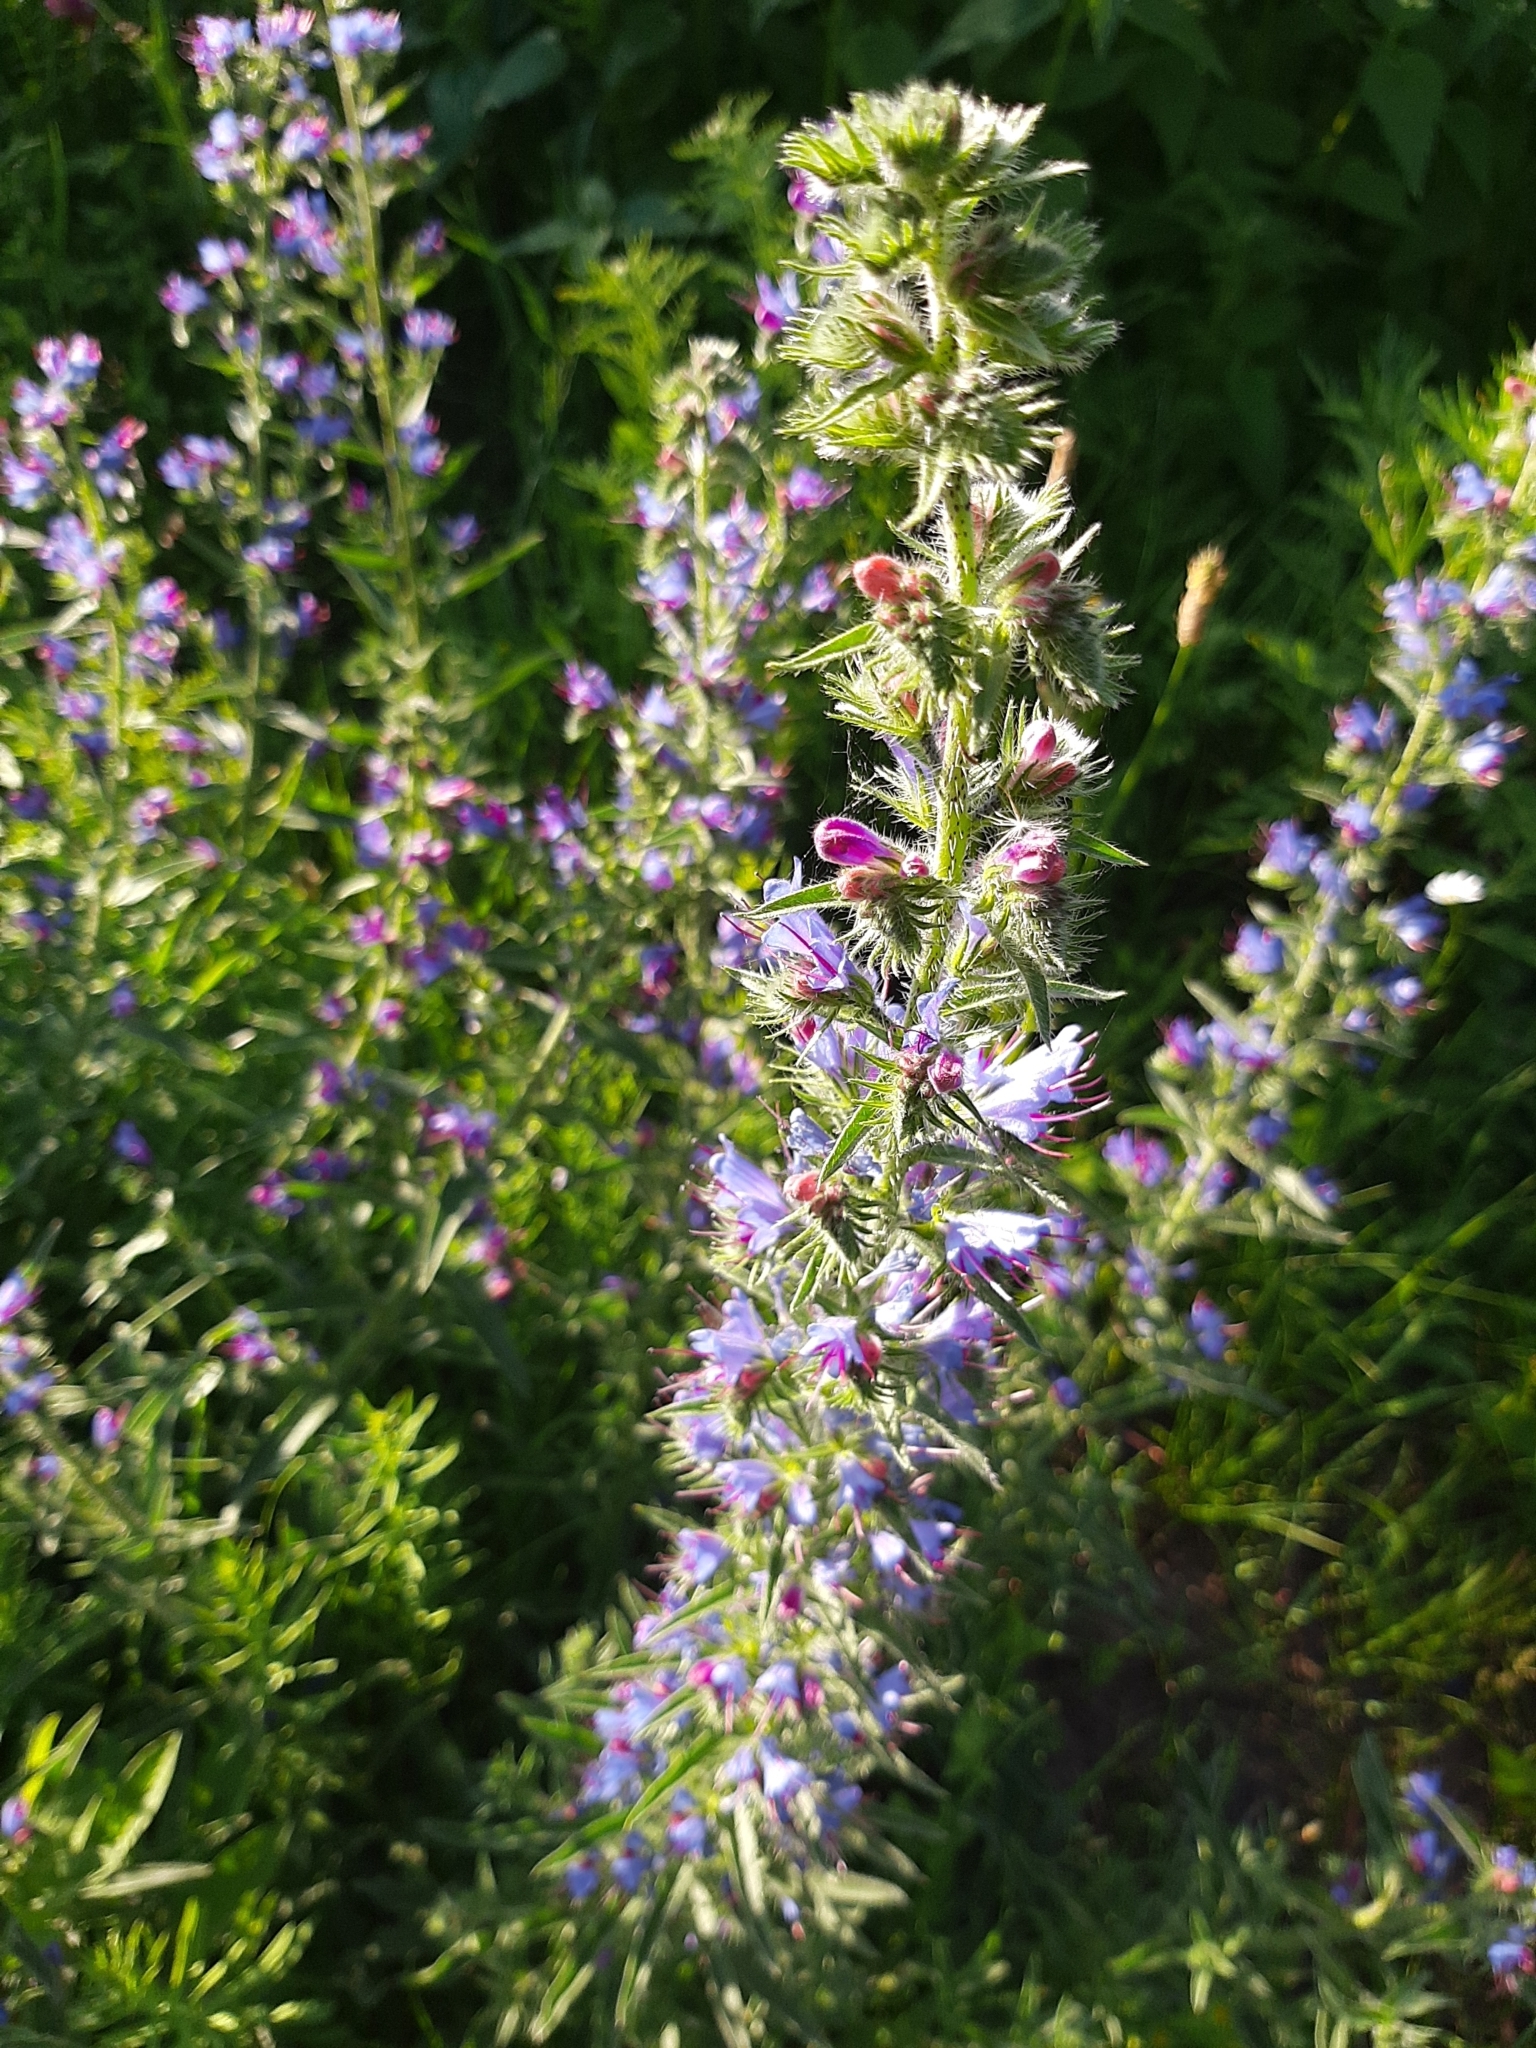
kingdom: Plantae
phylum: Tracheophyta
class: Magnoliopsida
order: Boraginales
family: Boraginaceae
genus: Echium
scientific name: Echium vulgare
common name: Common viper's bugloss
